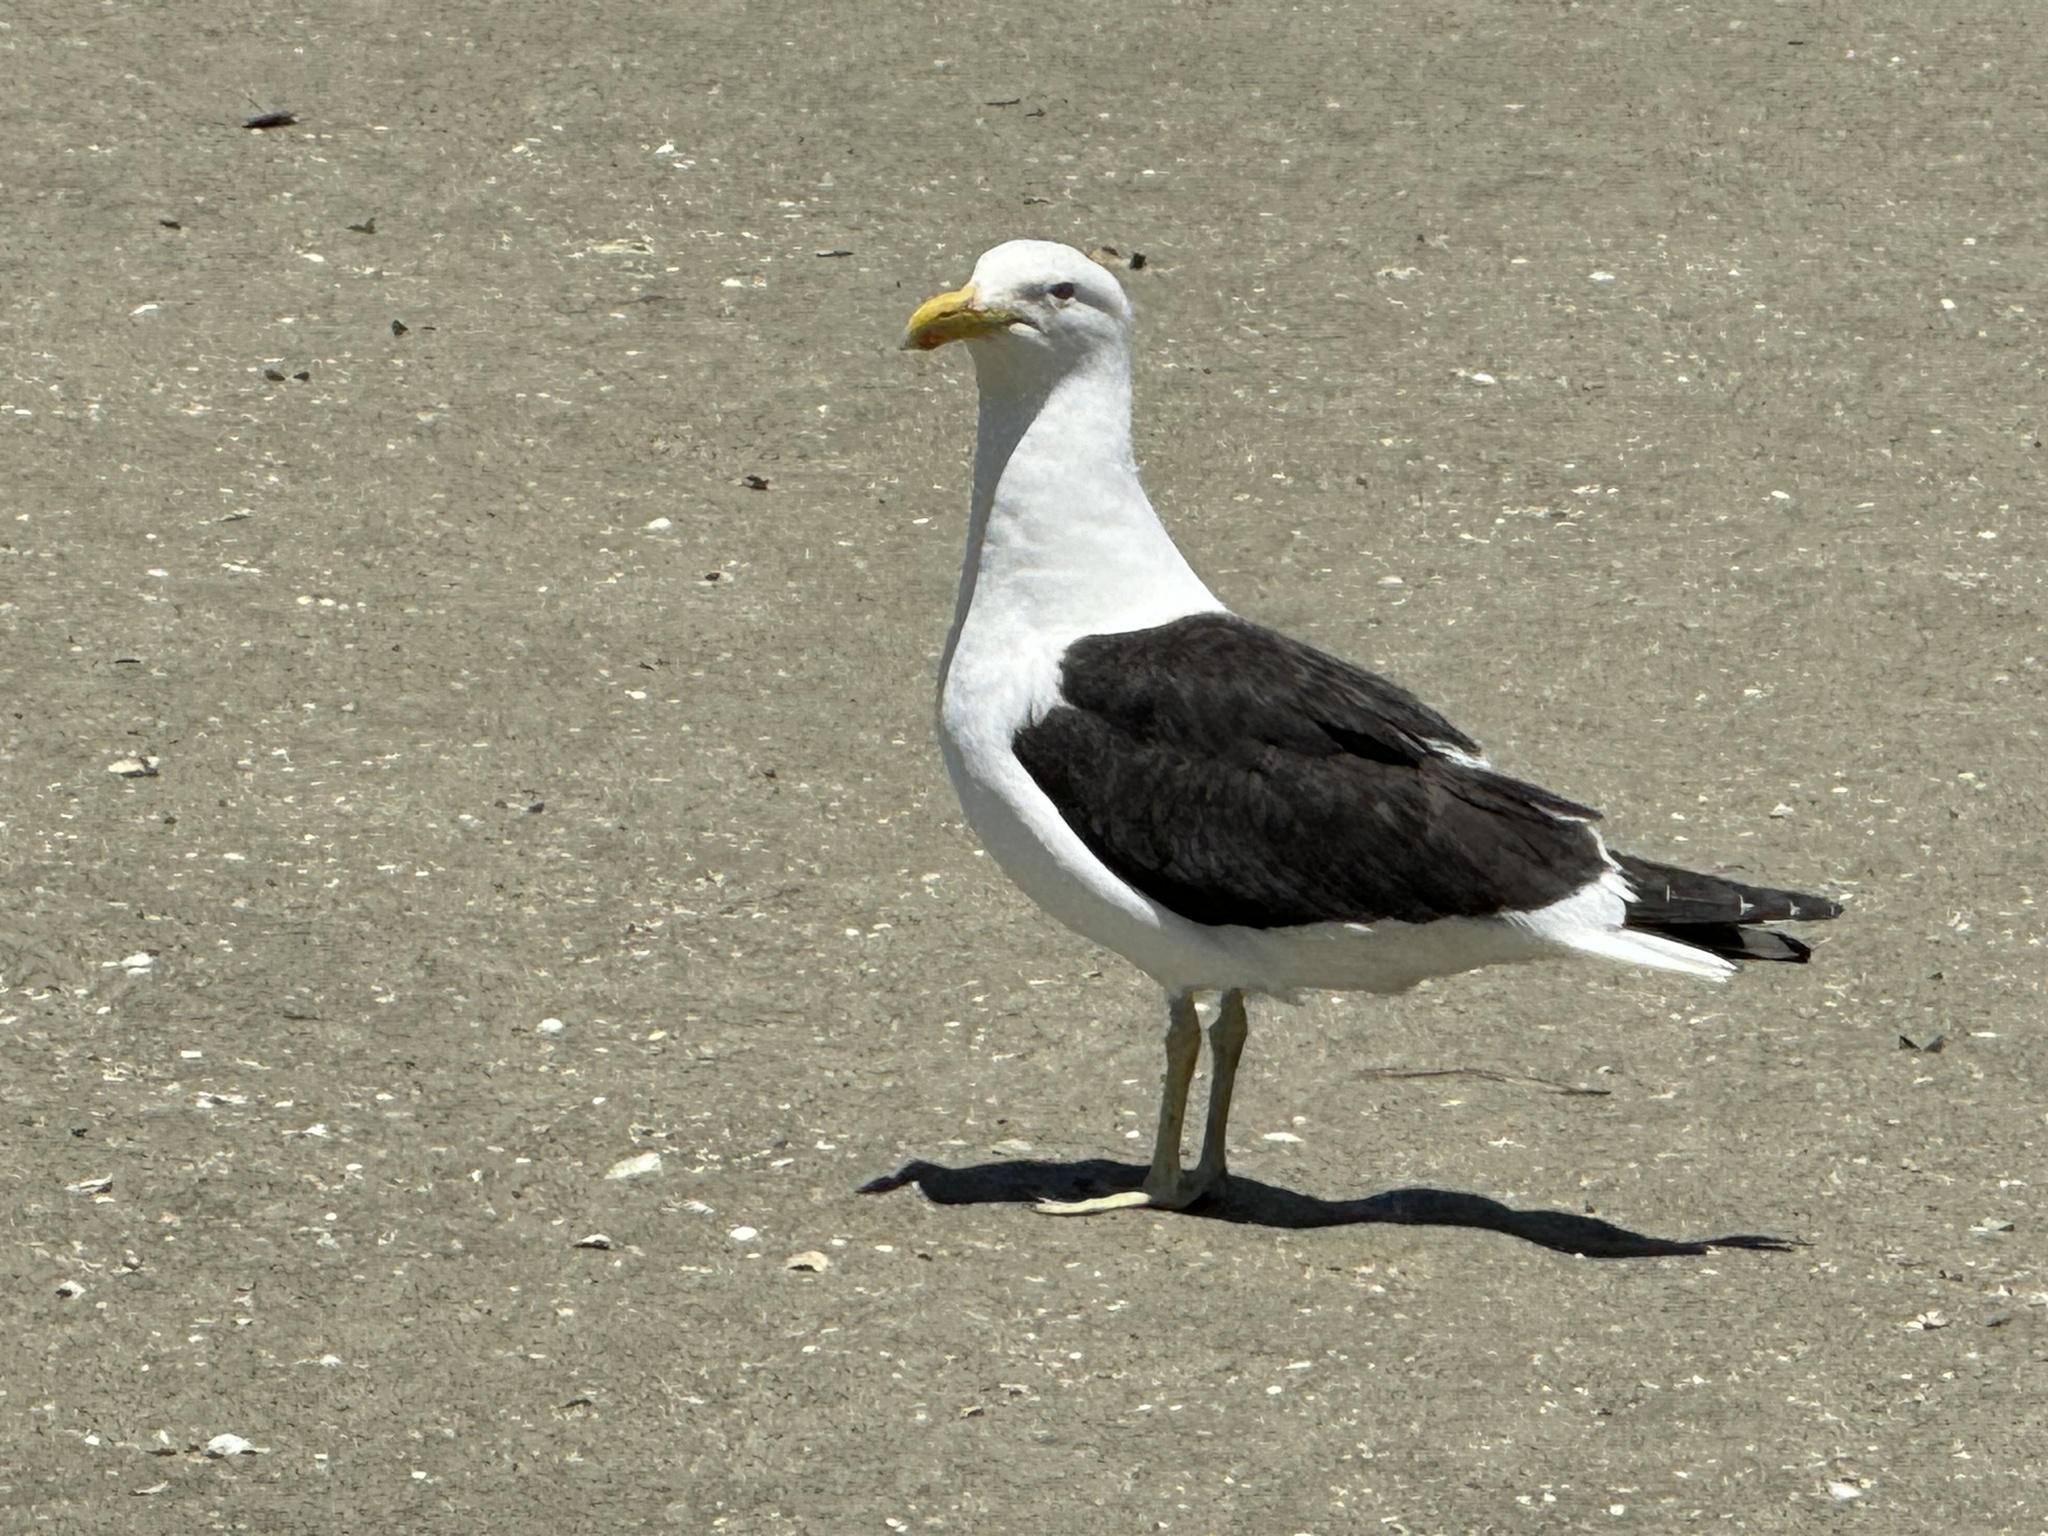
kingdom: Animalia
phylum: Chordata
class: Aves
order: Charadriiformes
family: Laridae
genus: Larus
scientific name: Larus dominicanus
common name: Kelp gull
